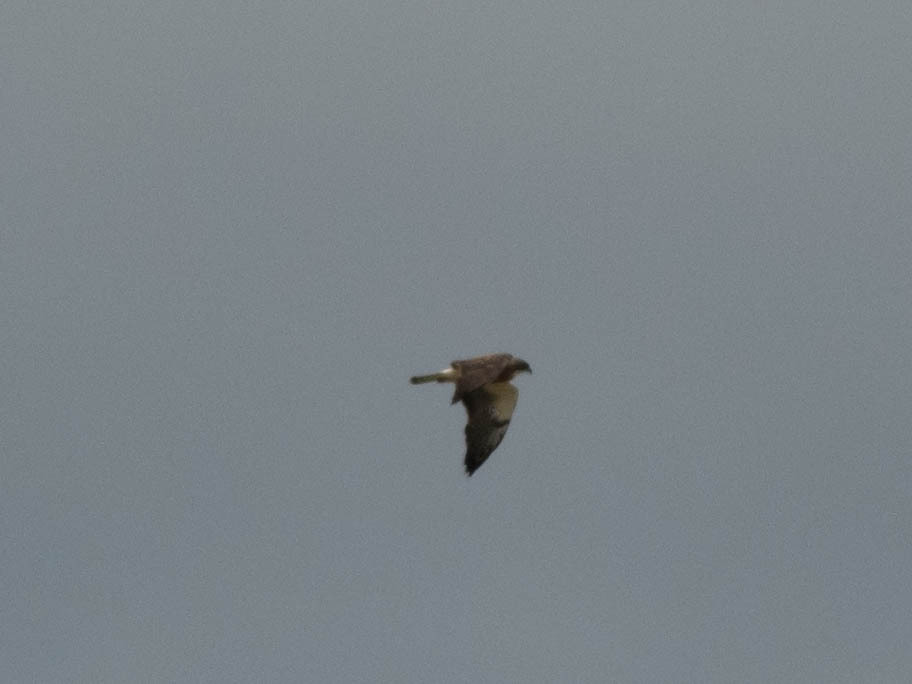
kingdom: Animalia
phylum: Chordata
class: Aves
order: Accipitriformes
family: Accipitridae
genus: Buteo
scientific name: Buteo swainsoni
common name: Swainson's hawk
